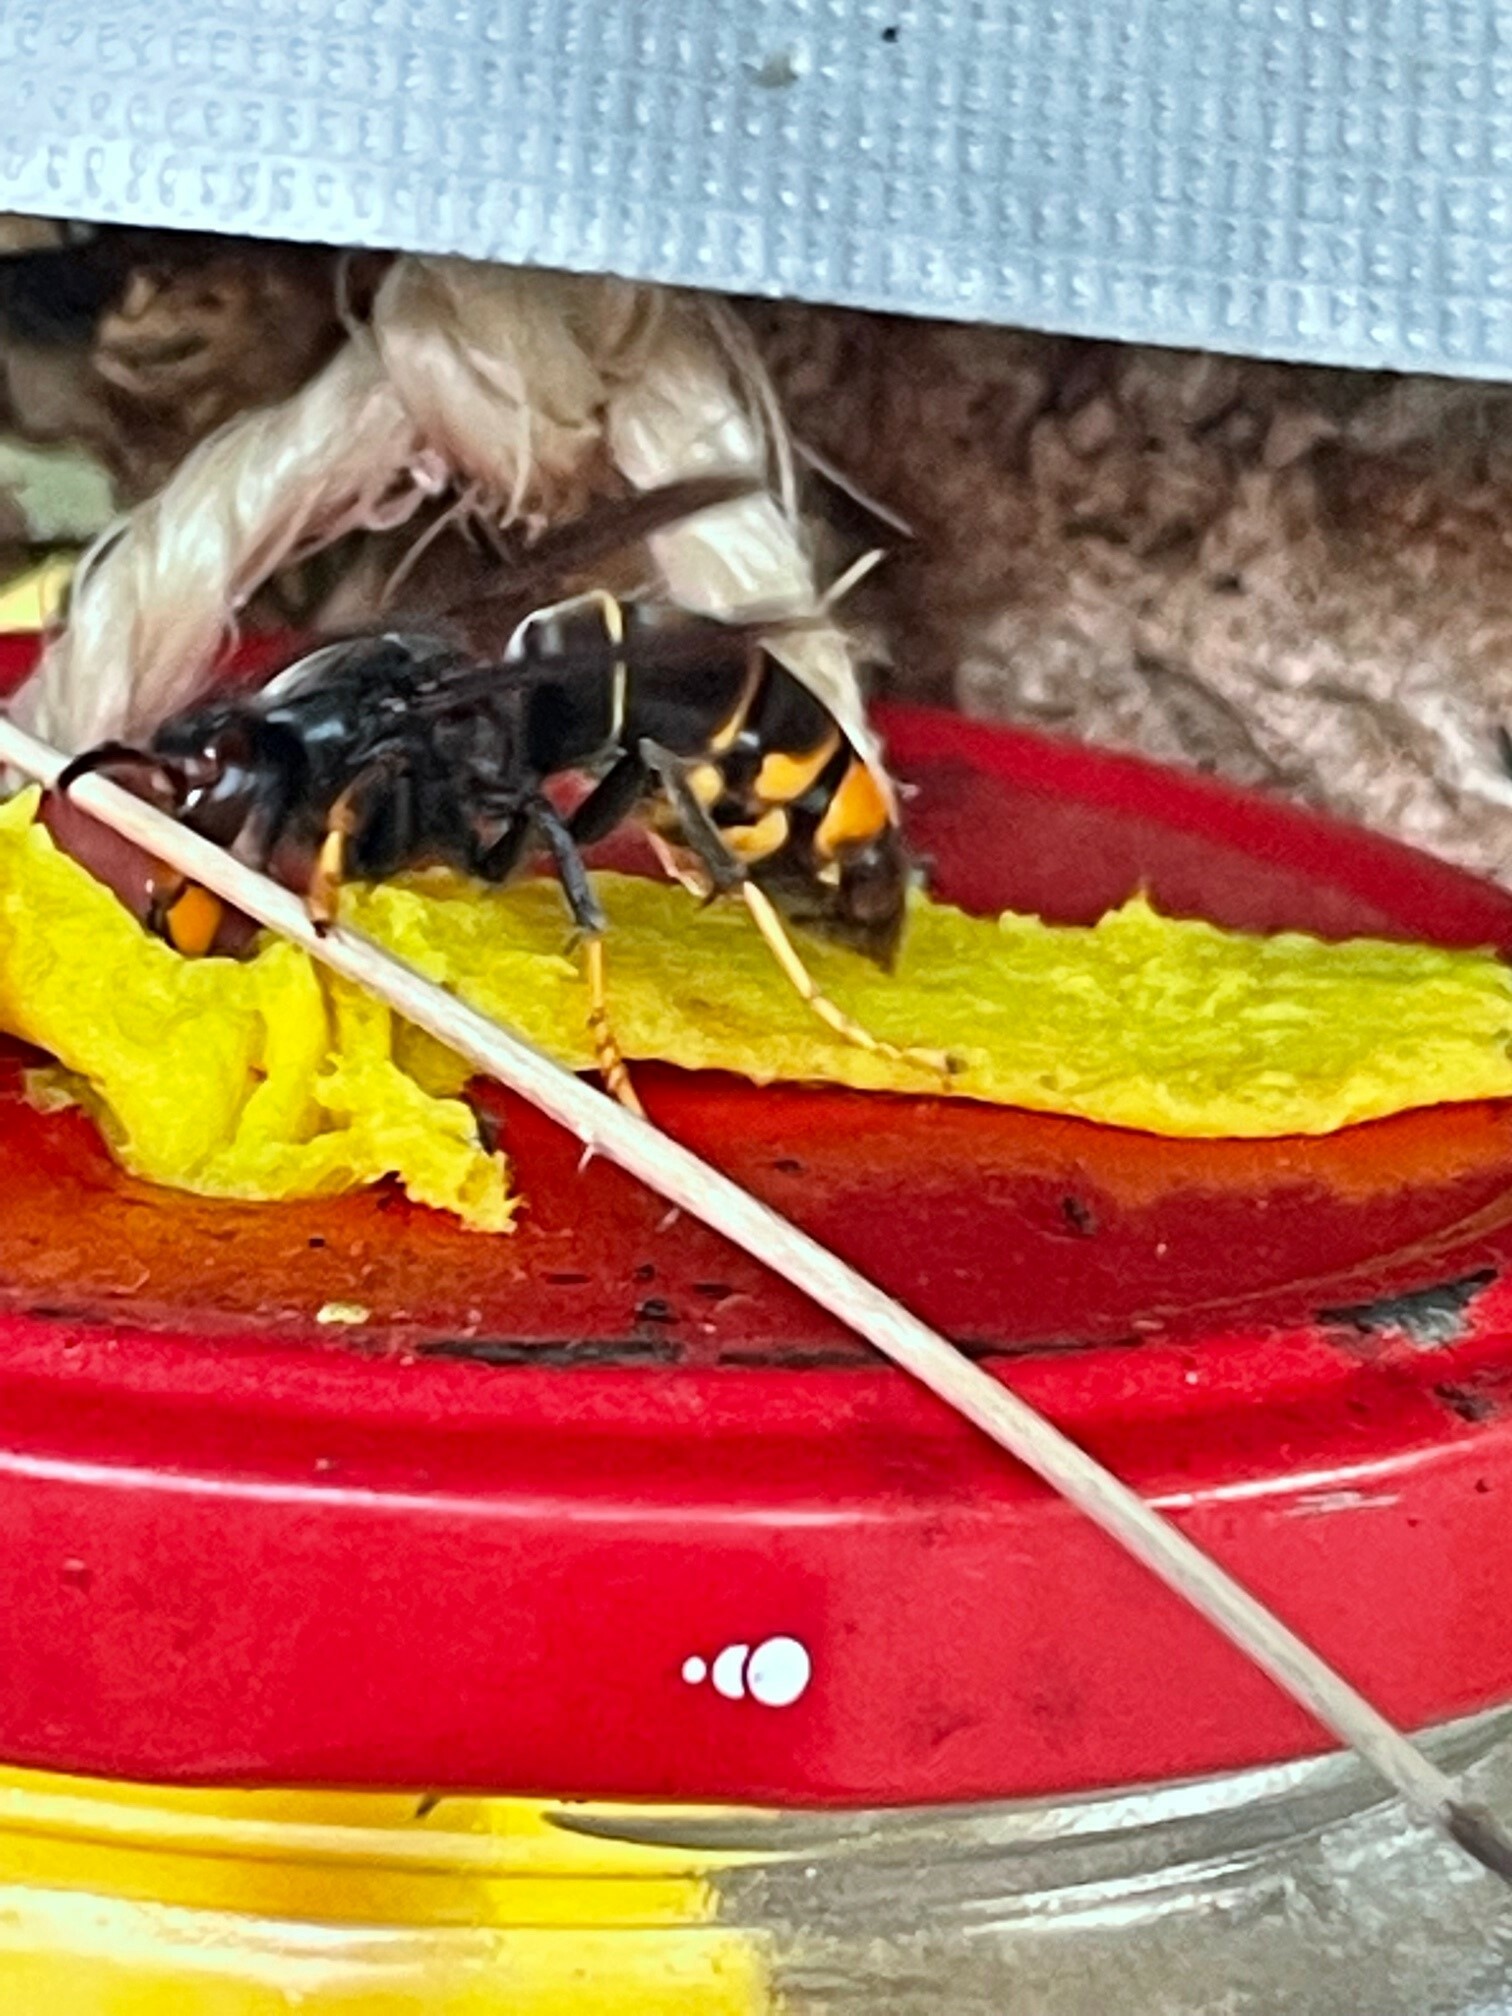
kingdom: Animalia
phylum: Arthropoda
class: Insecta
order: Hymenoptera
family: Vespidae
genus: Vespa
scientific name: Vespa velutina
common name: Asian hornet
